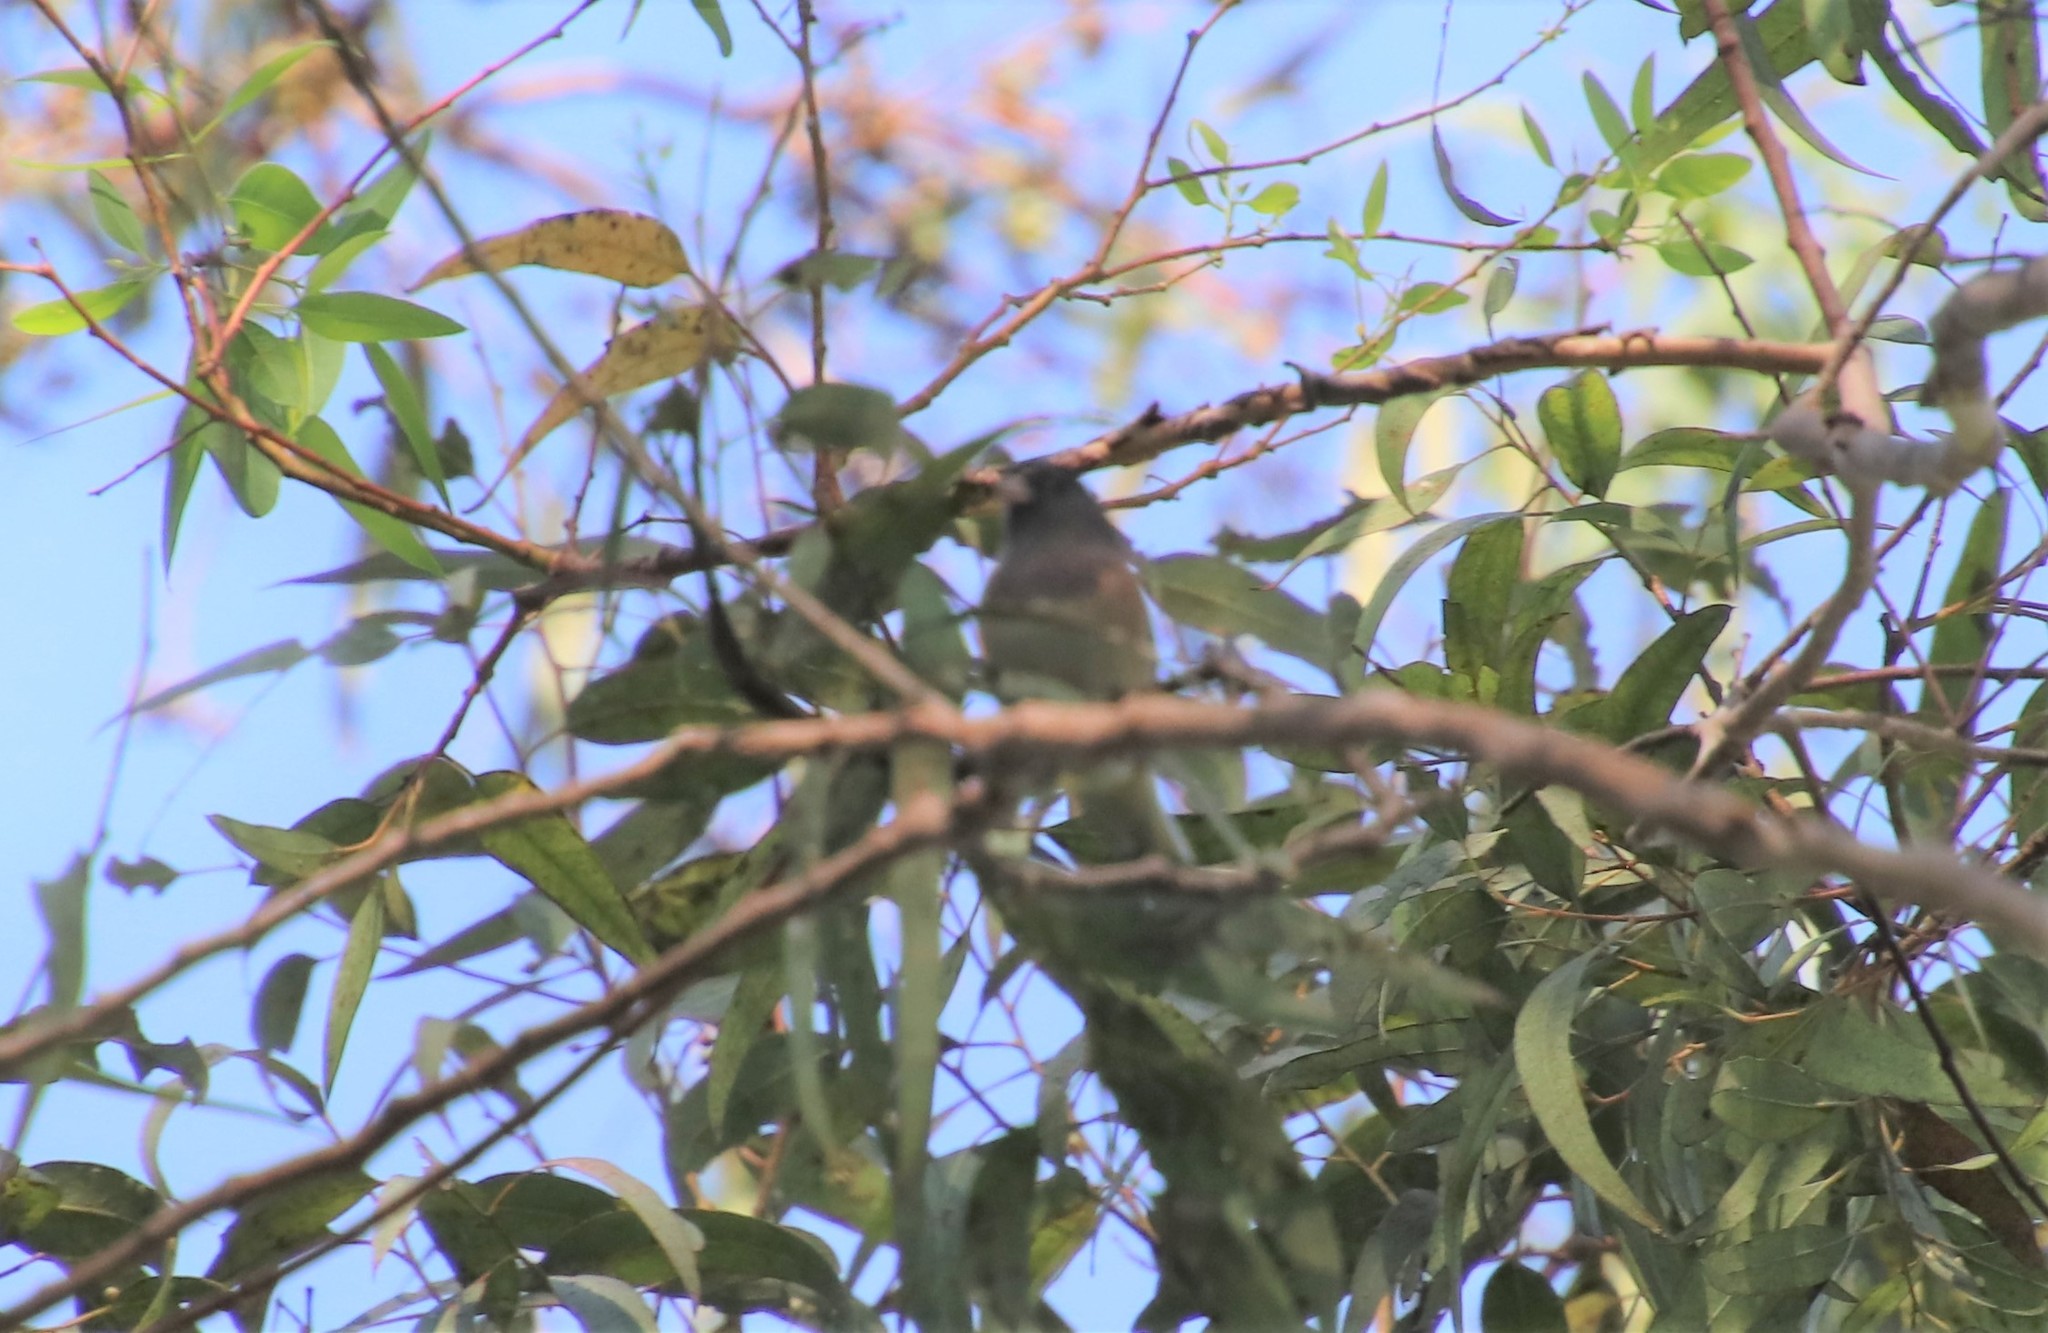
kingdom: Animalia
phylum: Chordata
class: Aves
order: Passeriformes
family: Passerellidae
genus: Junco
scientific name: Junco hyemalis
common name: Dark-eyed junco
